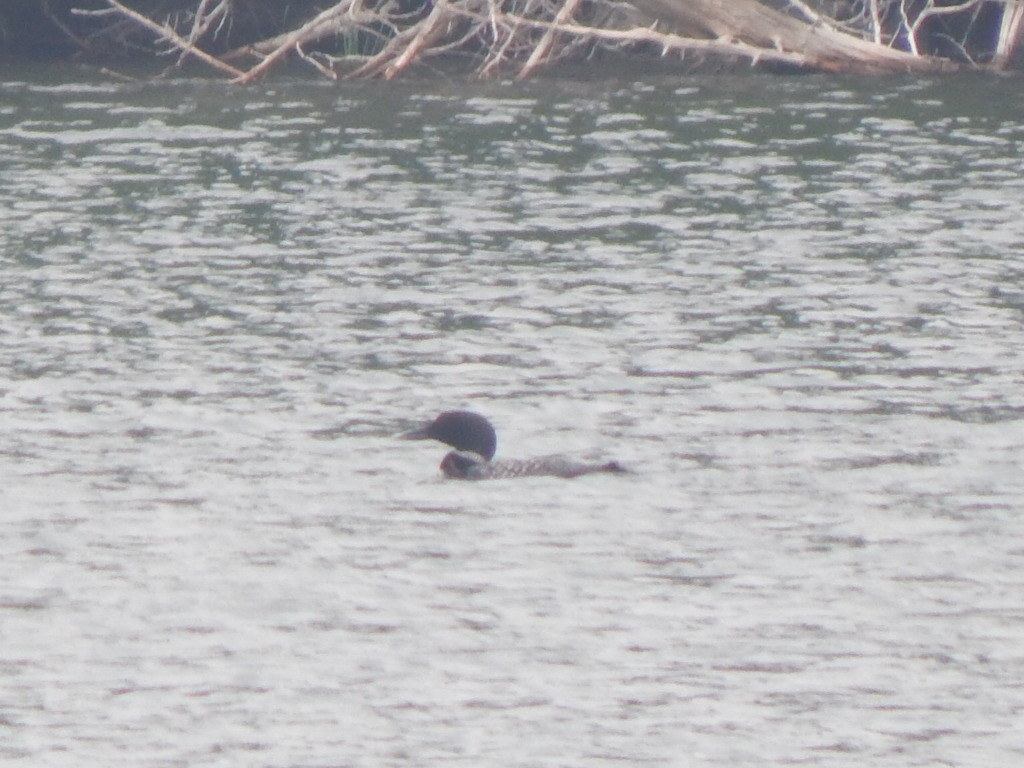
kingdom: Animalia
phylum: Chordata
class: Aves
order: Gaviiformes
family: Gaviidae
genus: Gavia
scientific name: Gavia immer
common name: Common loon
